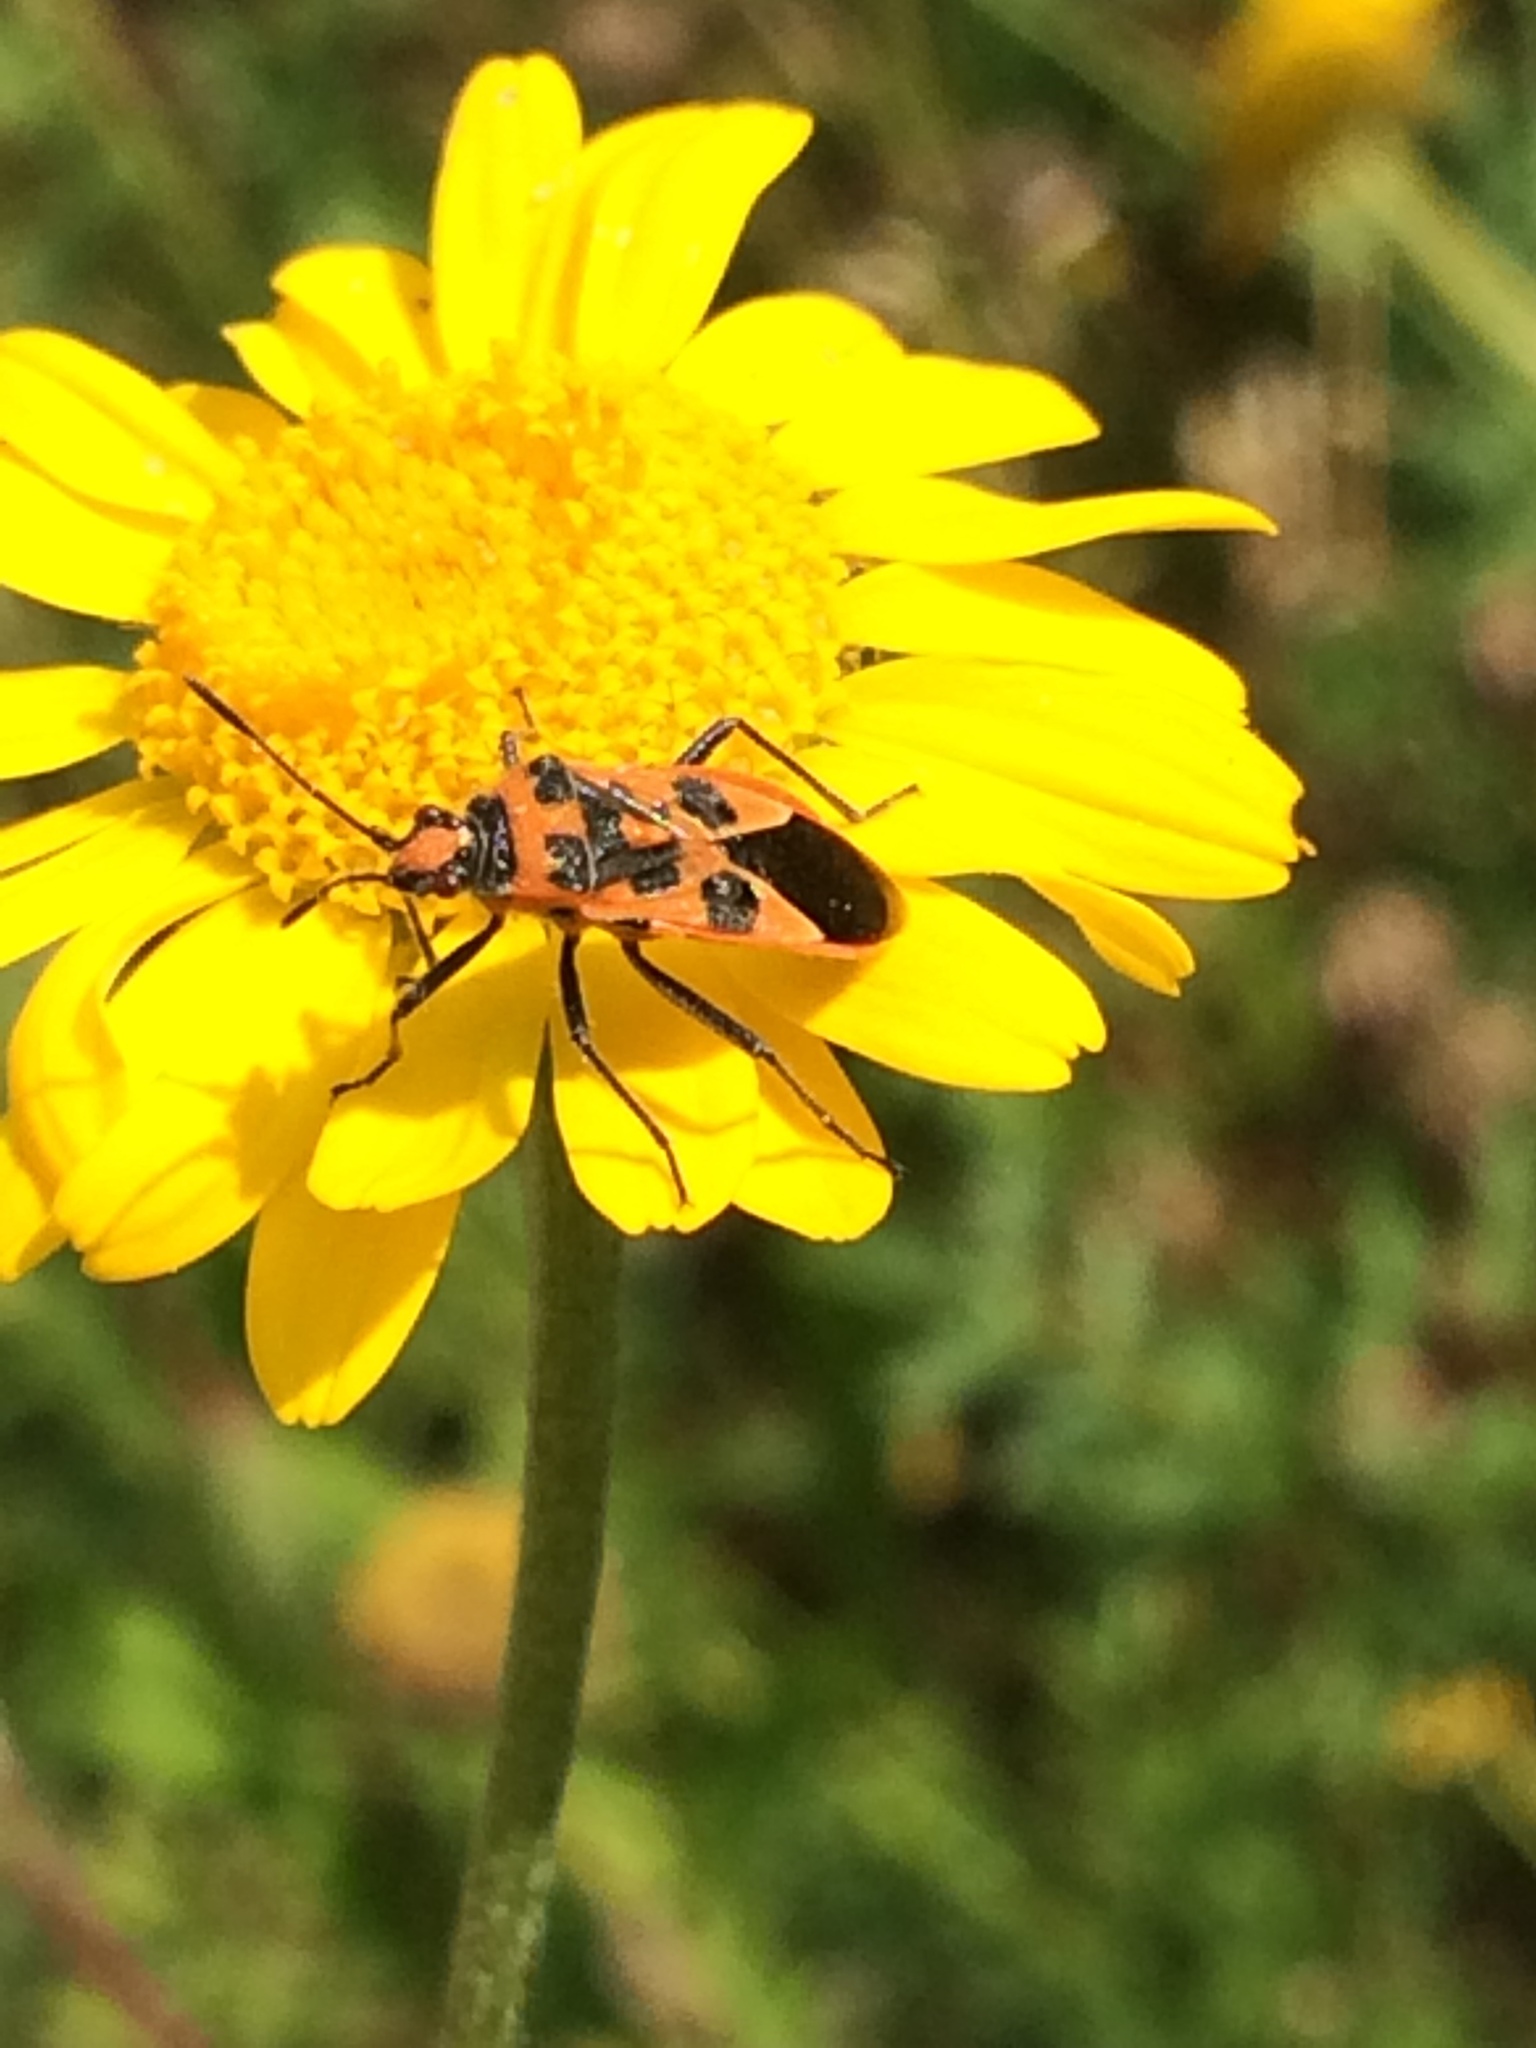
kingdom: Animalia
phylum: Arthropoda
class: Insecta
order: Hemiptera
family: Rhopalidae
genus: Corizus
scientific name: Corizus hyoscyami
